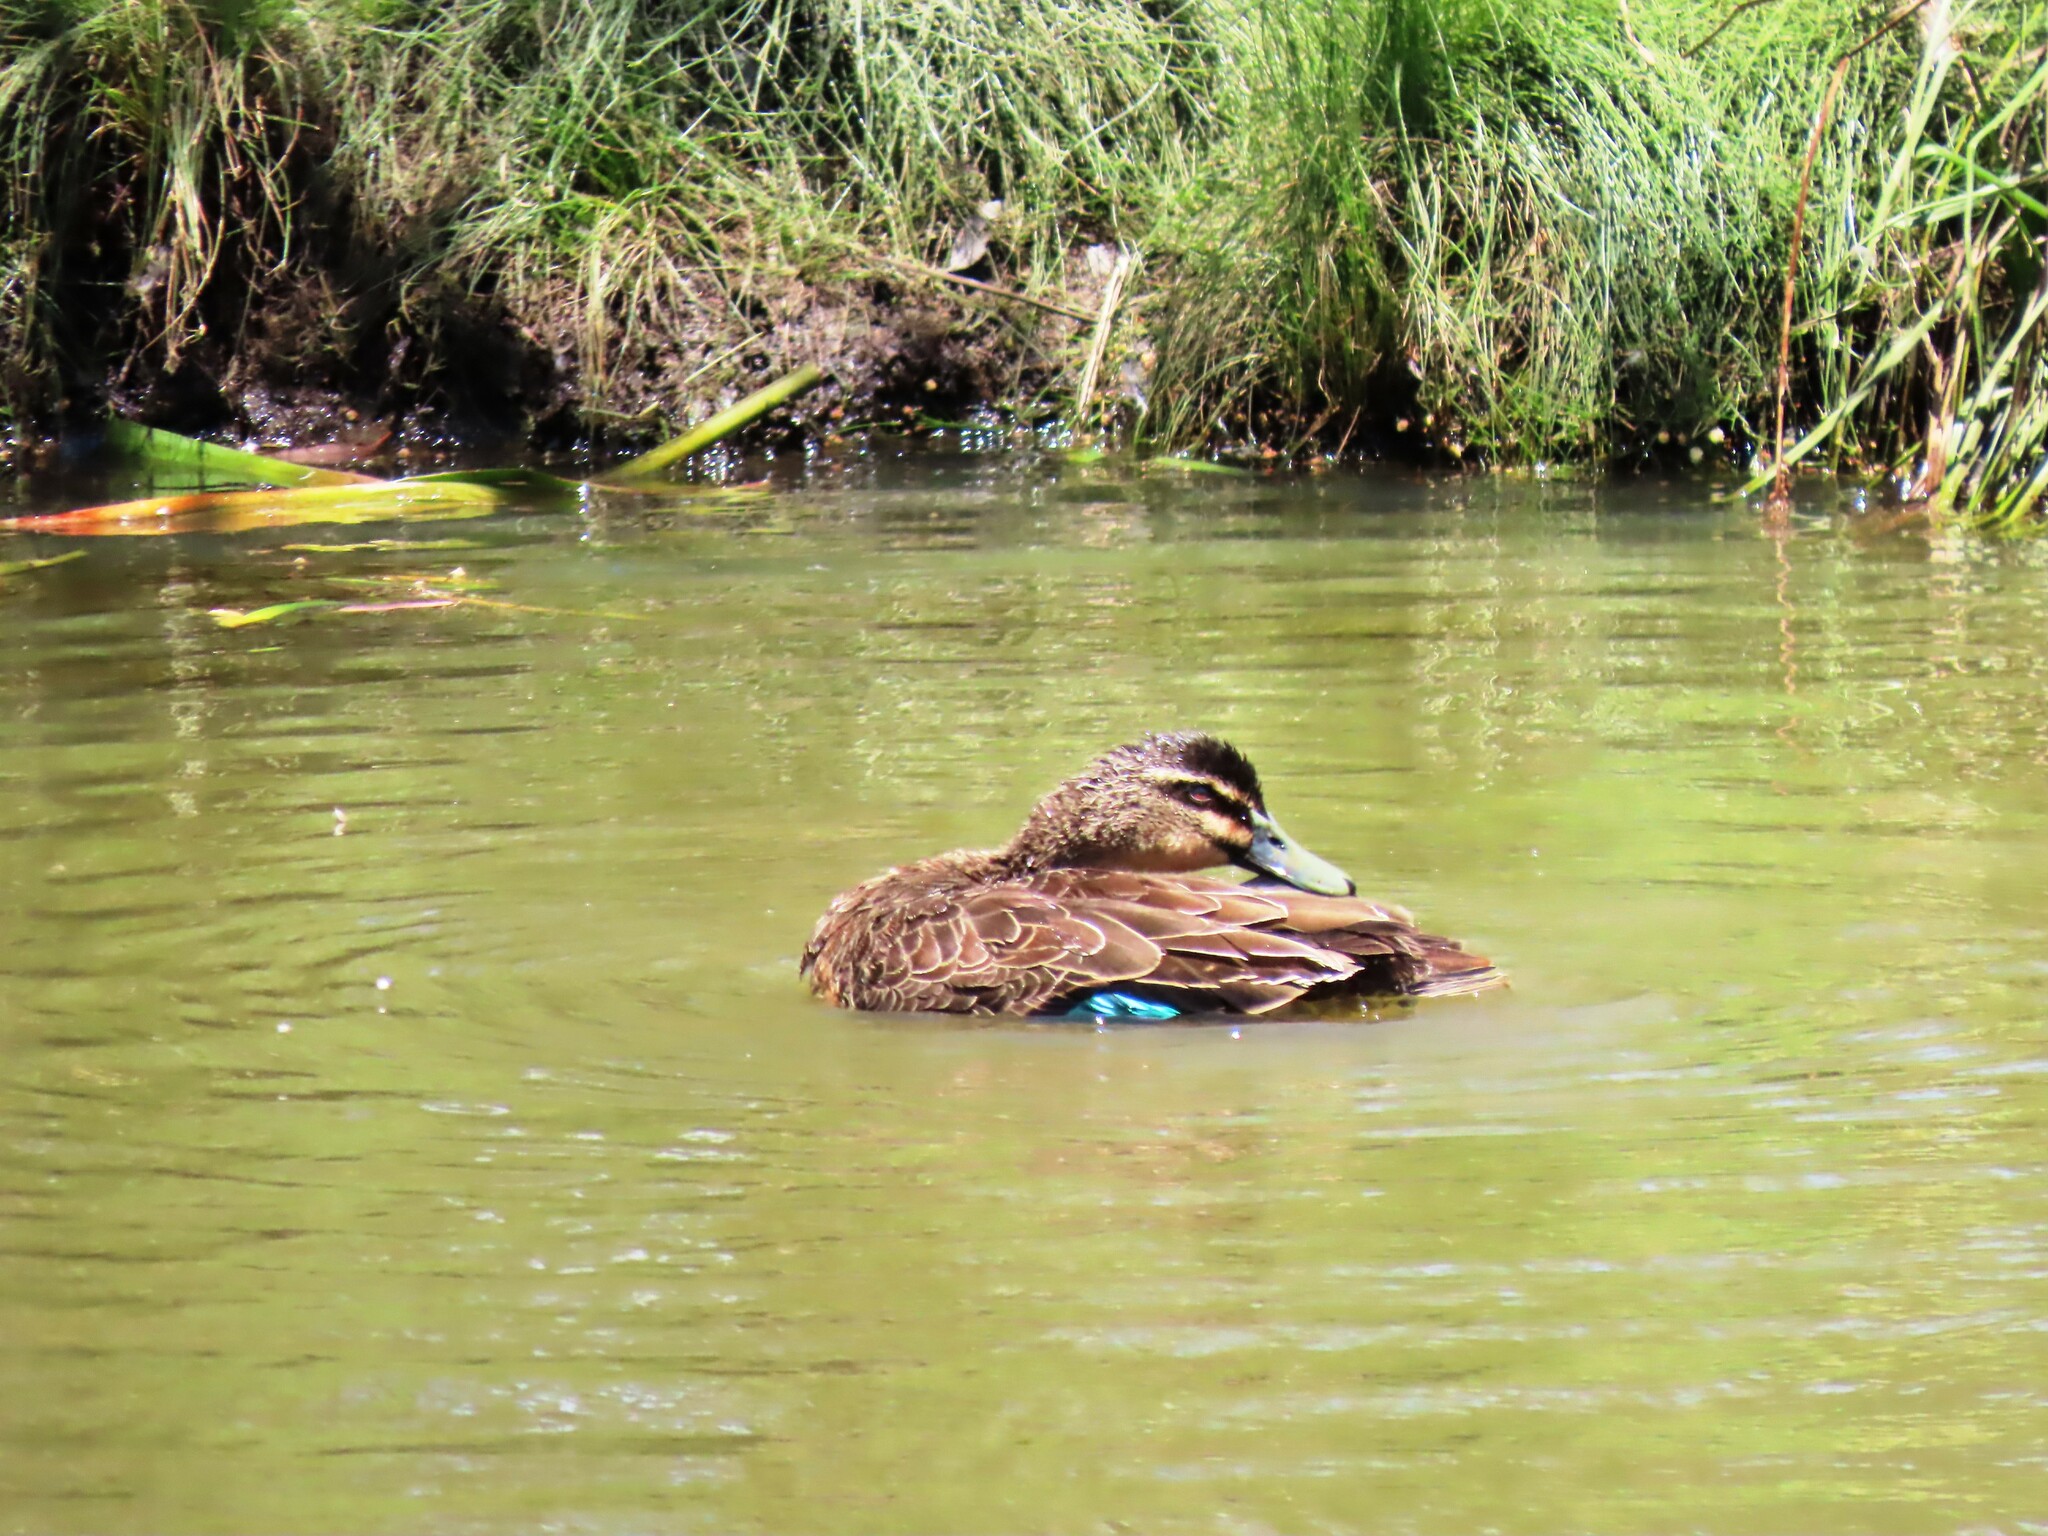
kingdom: Animalia
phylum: Chordata
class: Aves
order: Anseriformes
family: Anatidae
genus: Anas
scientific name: Anas superciliosa
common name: Pacific black duck
